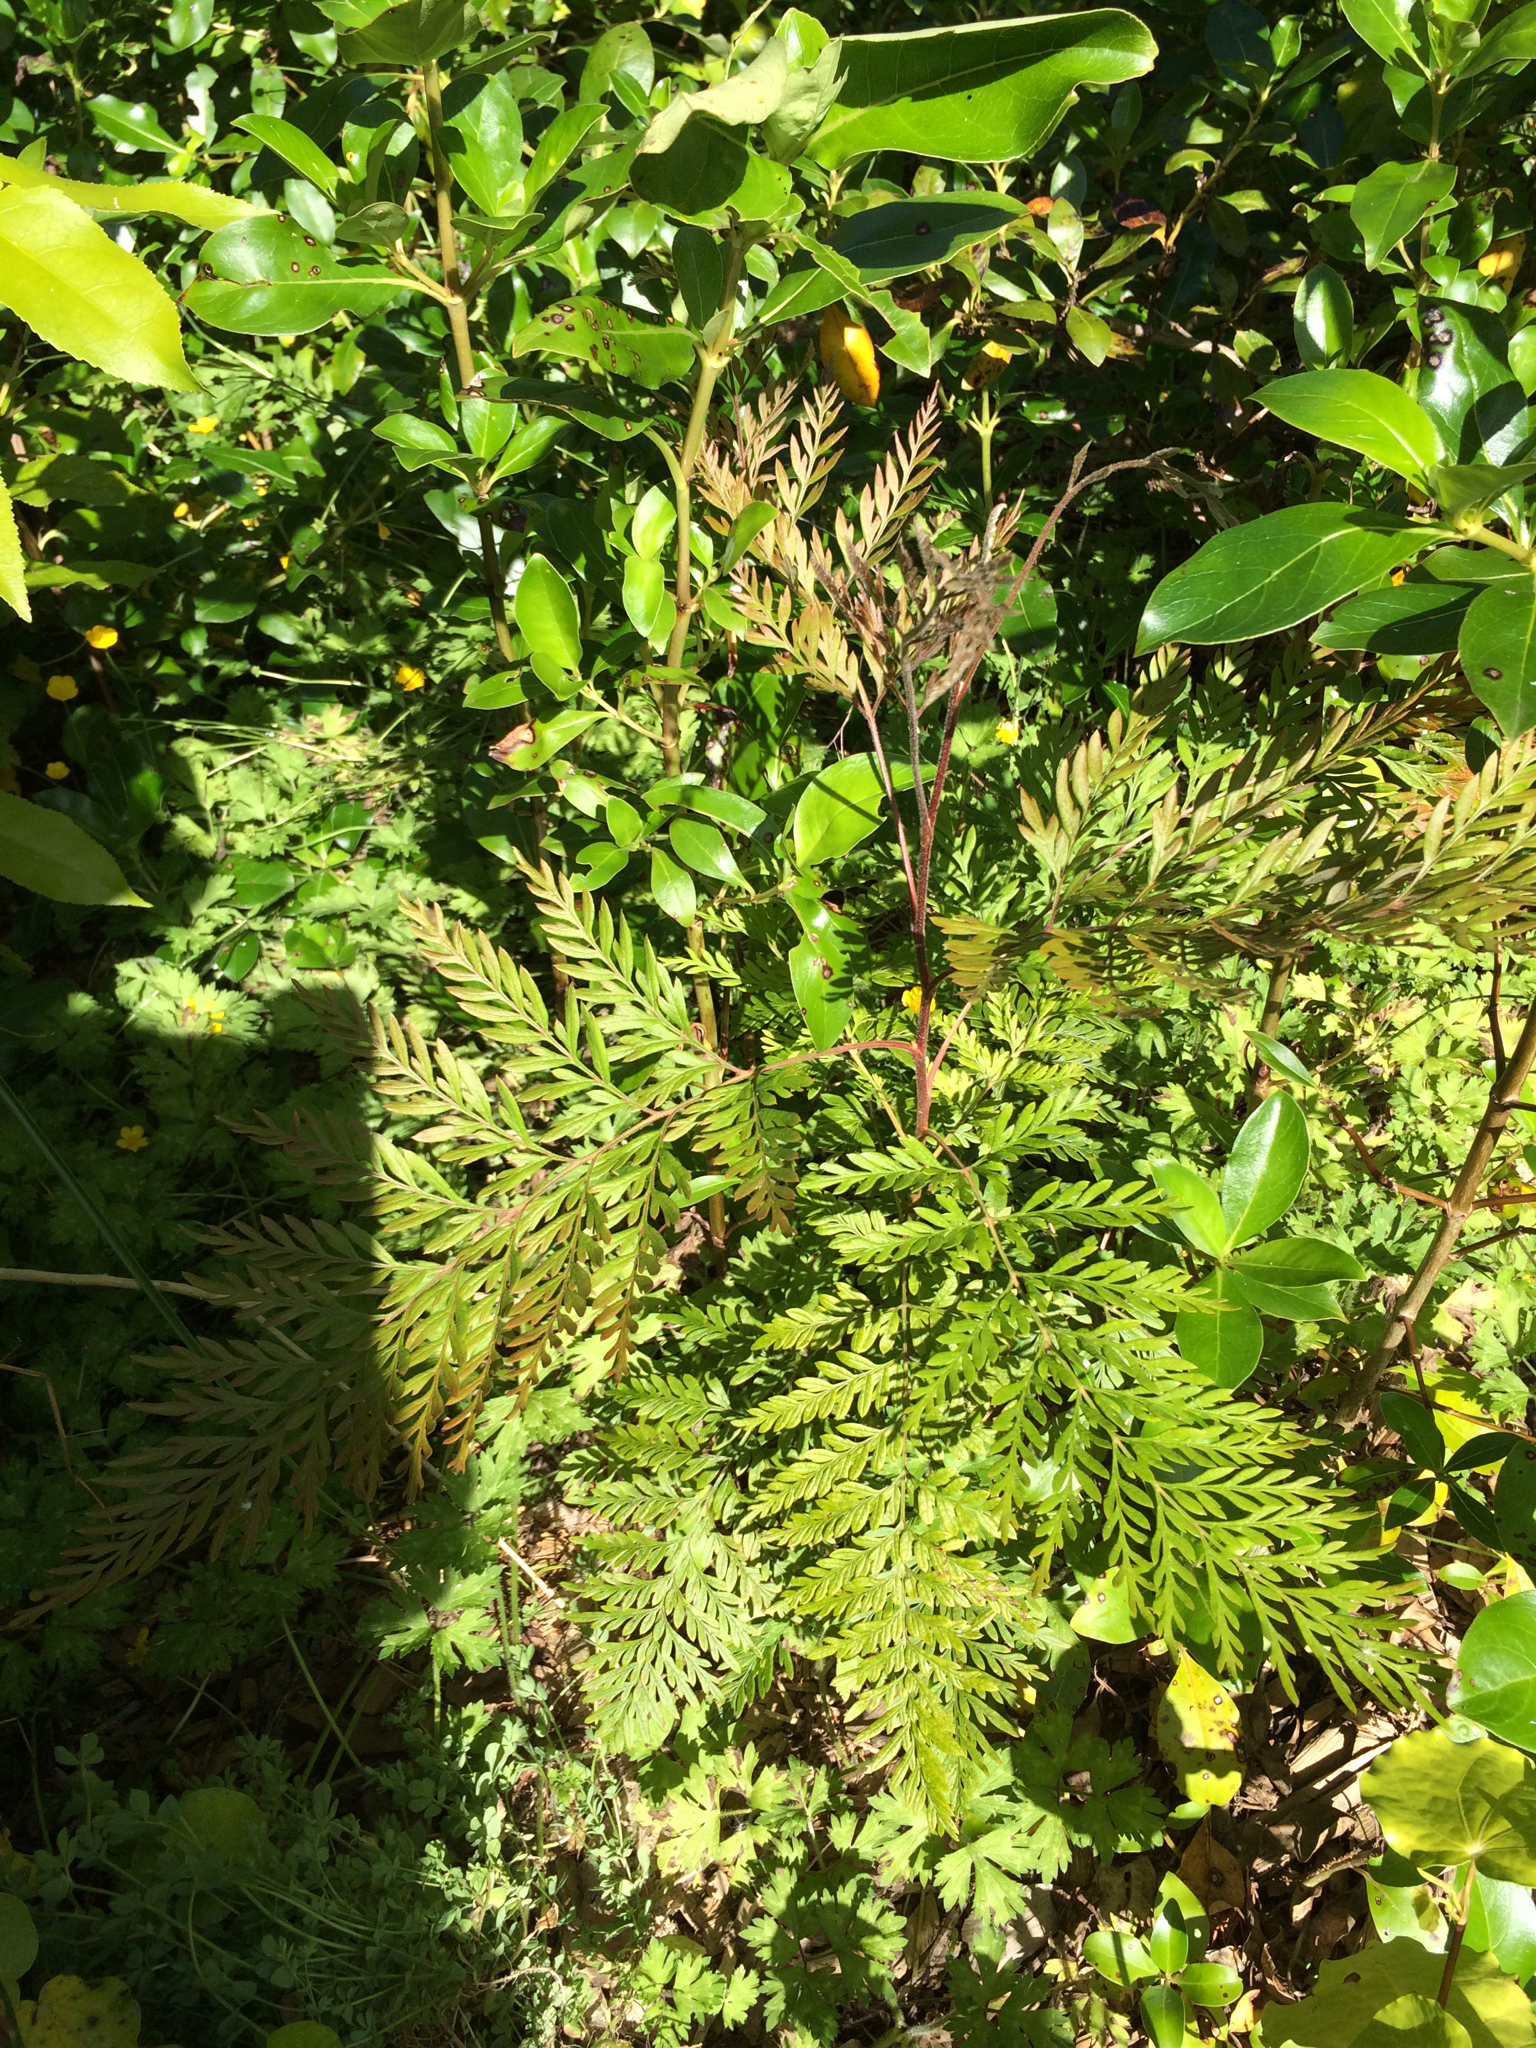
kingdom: Plantae
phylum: Tracheophyta
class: Magnoliopsida
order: Proteales
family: Proteaceae
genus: Grevillea
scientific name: Grevillea robusta
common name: Silkoak
